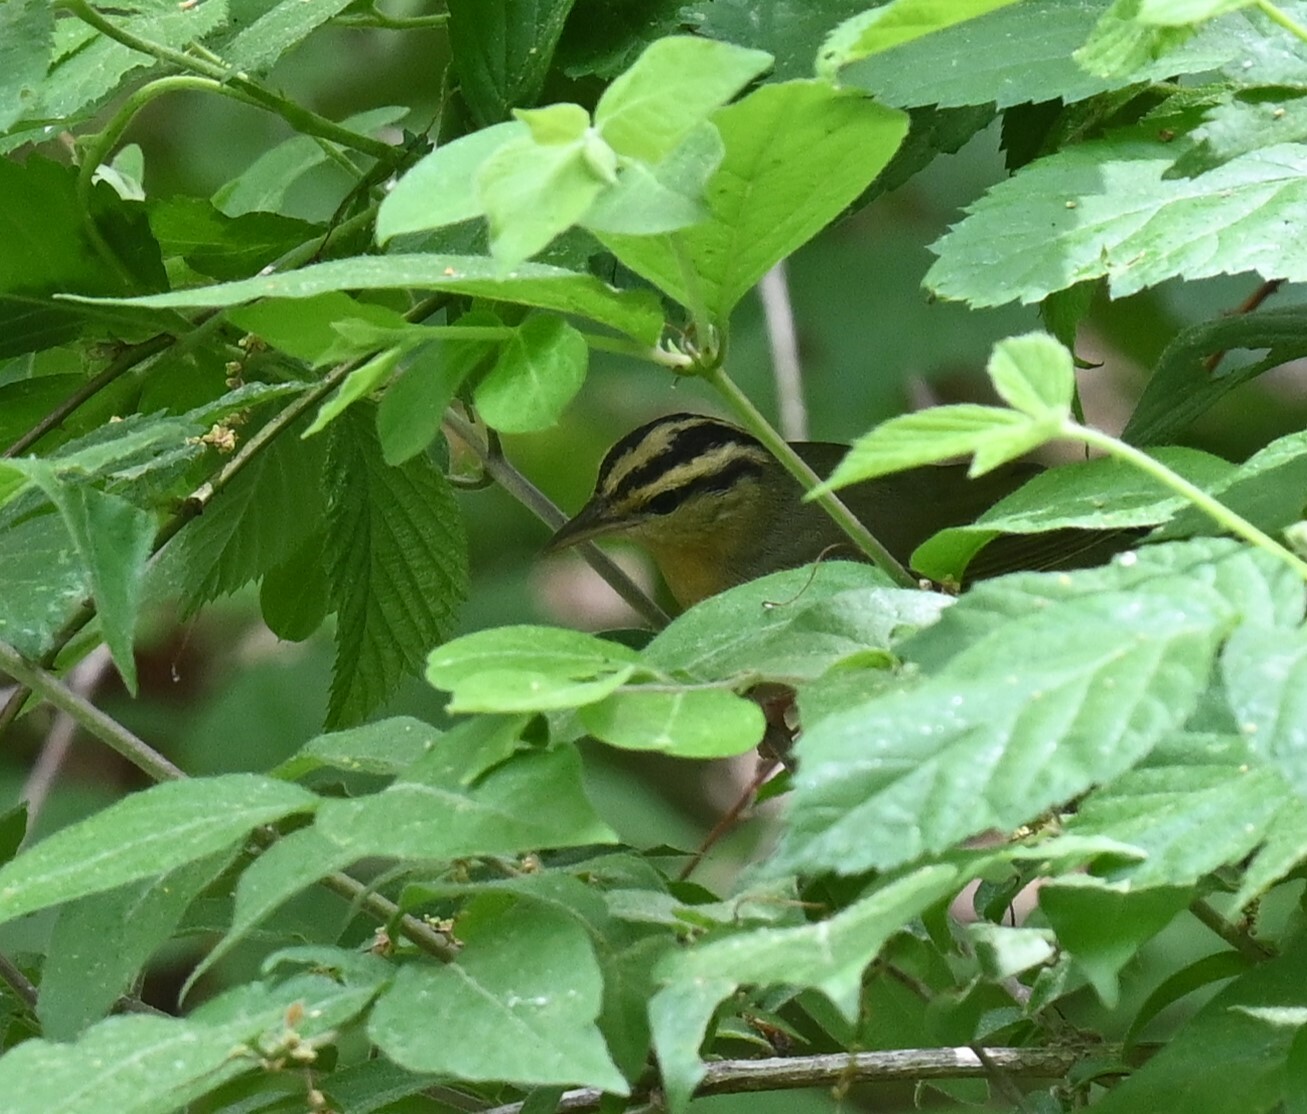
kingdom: Animalia
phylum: Chordata
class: Aves
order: Passeriformes
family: Parulidae
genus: Helmitheros
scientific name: Helmitheros vermivorum
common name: Worm-eating warbler
